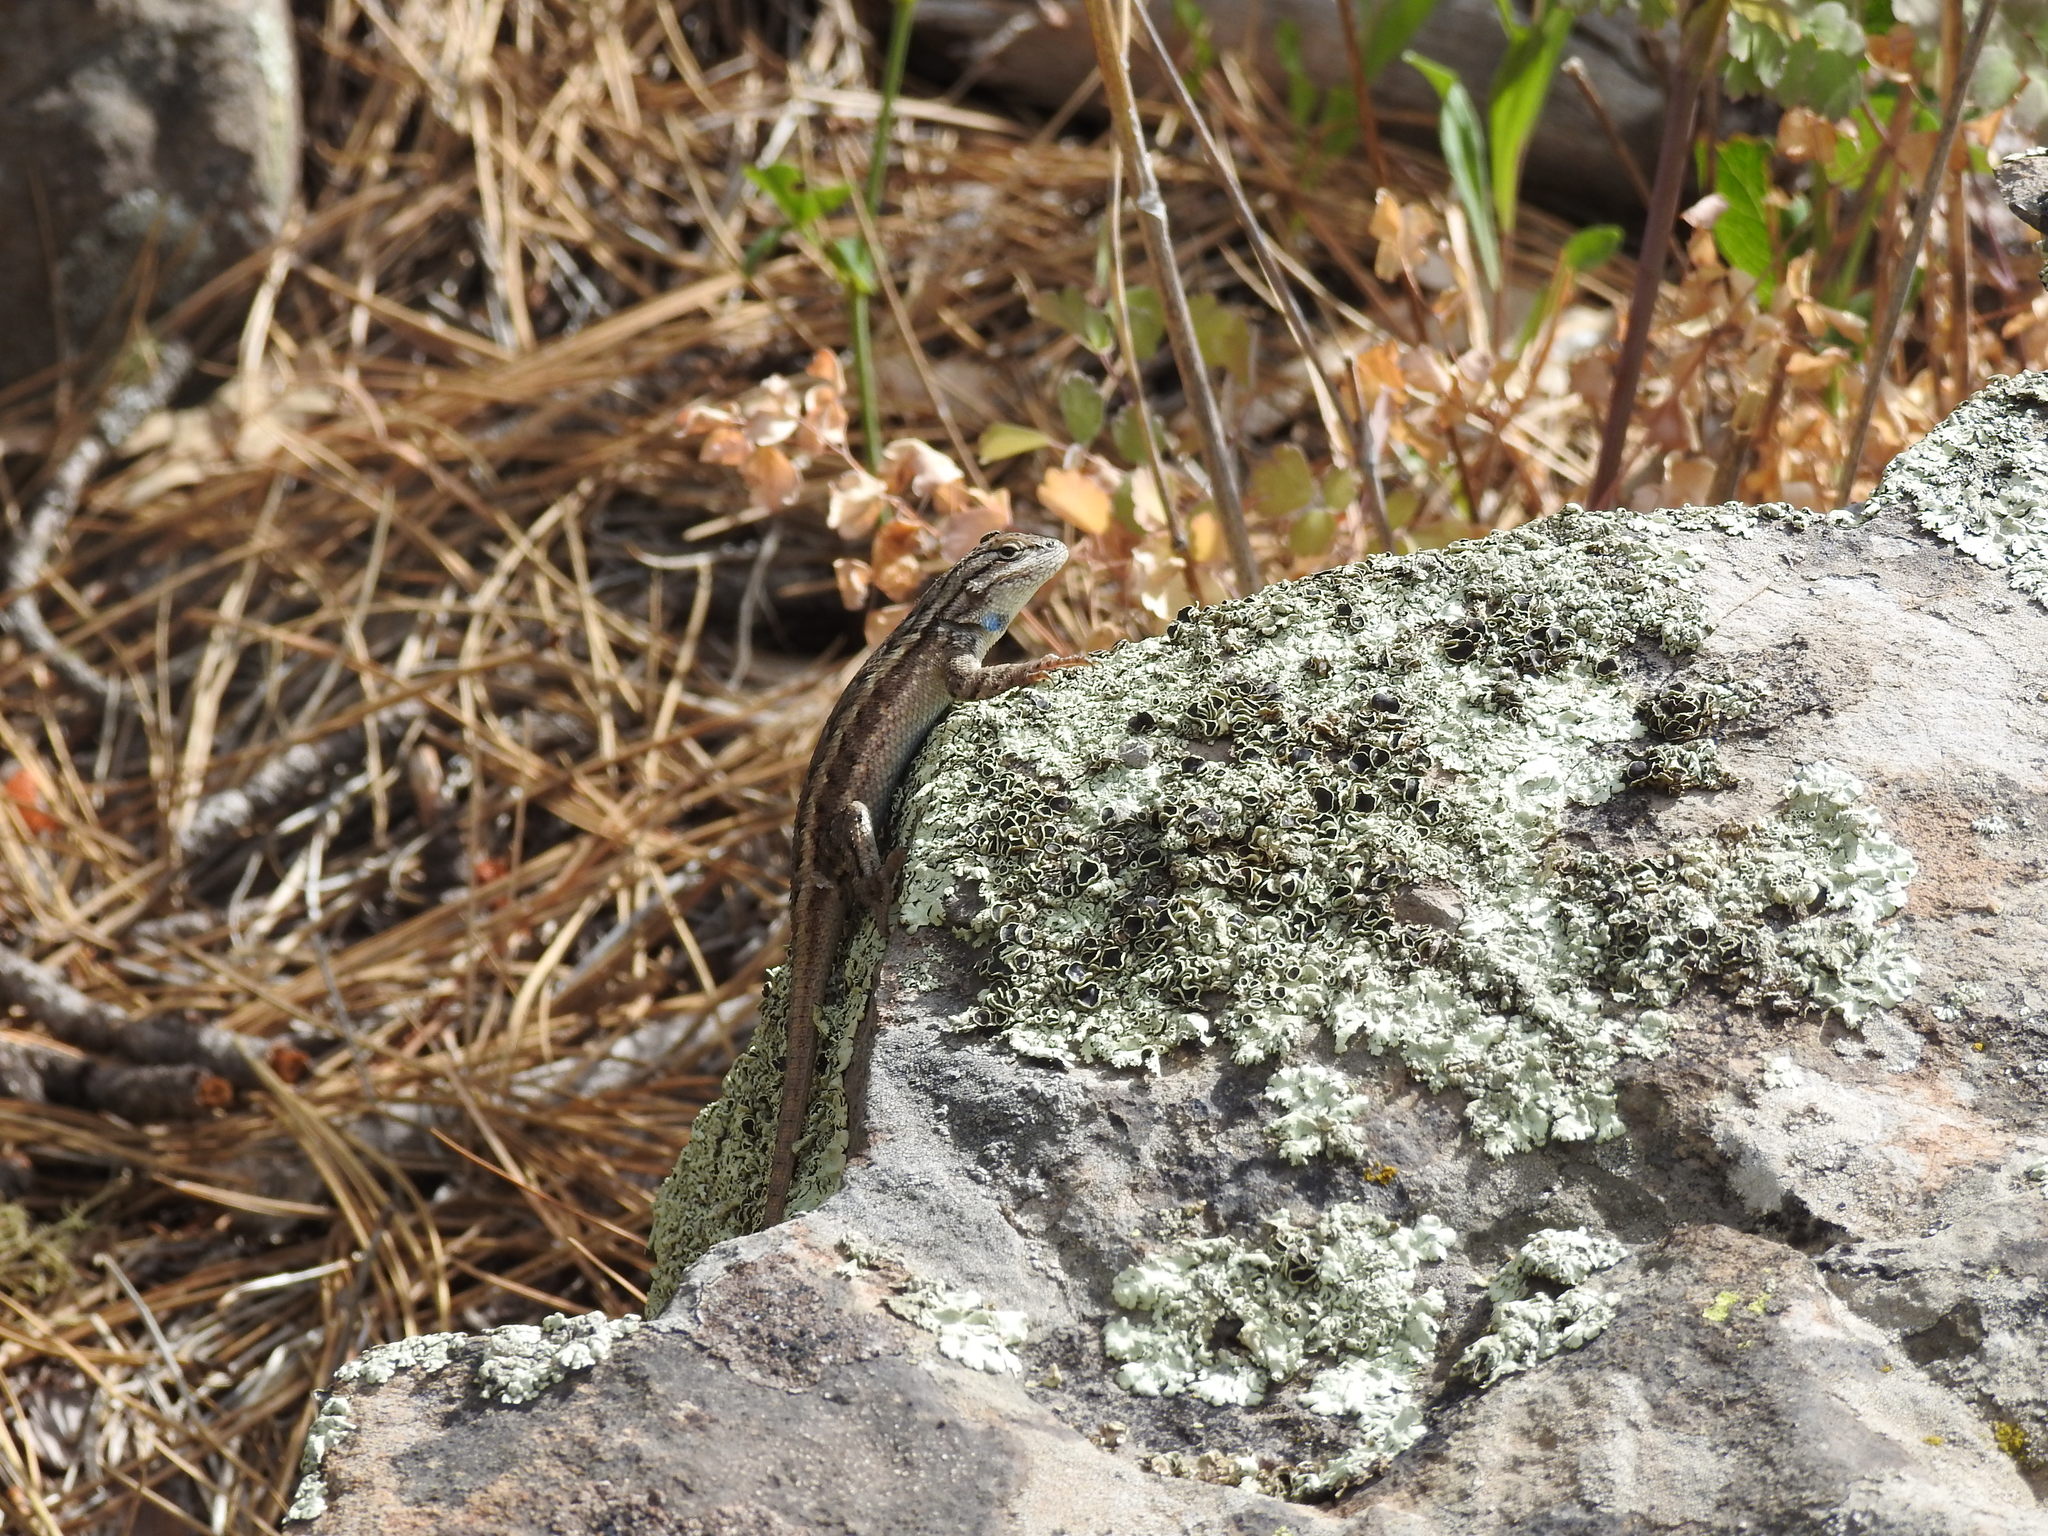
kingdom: Animalia
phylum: Chordata
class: Squamata
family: Phrynosomatidae
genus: Sceloporus
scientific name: Sceloporus tristichus
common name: Plateau fence lizard
